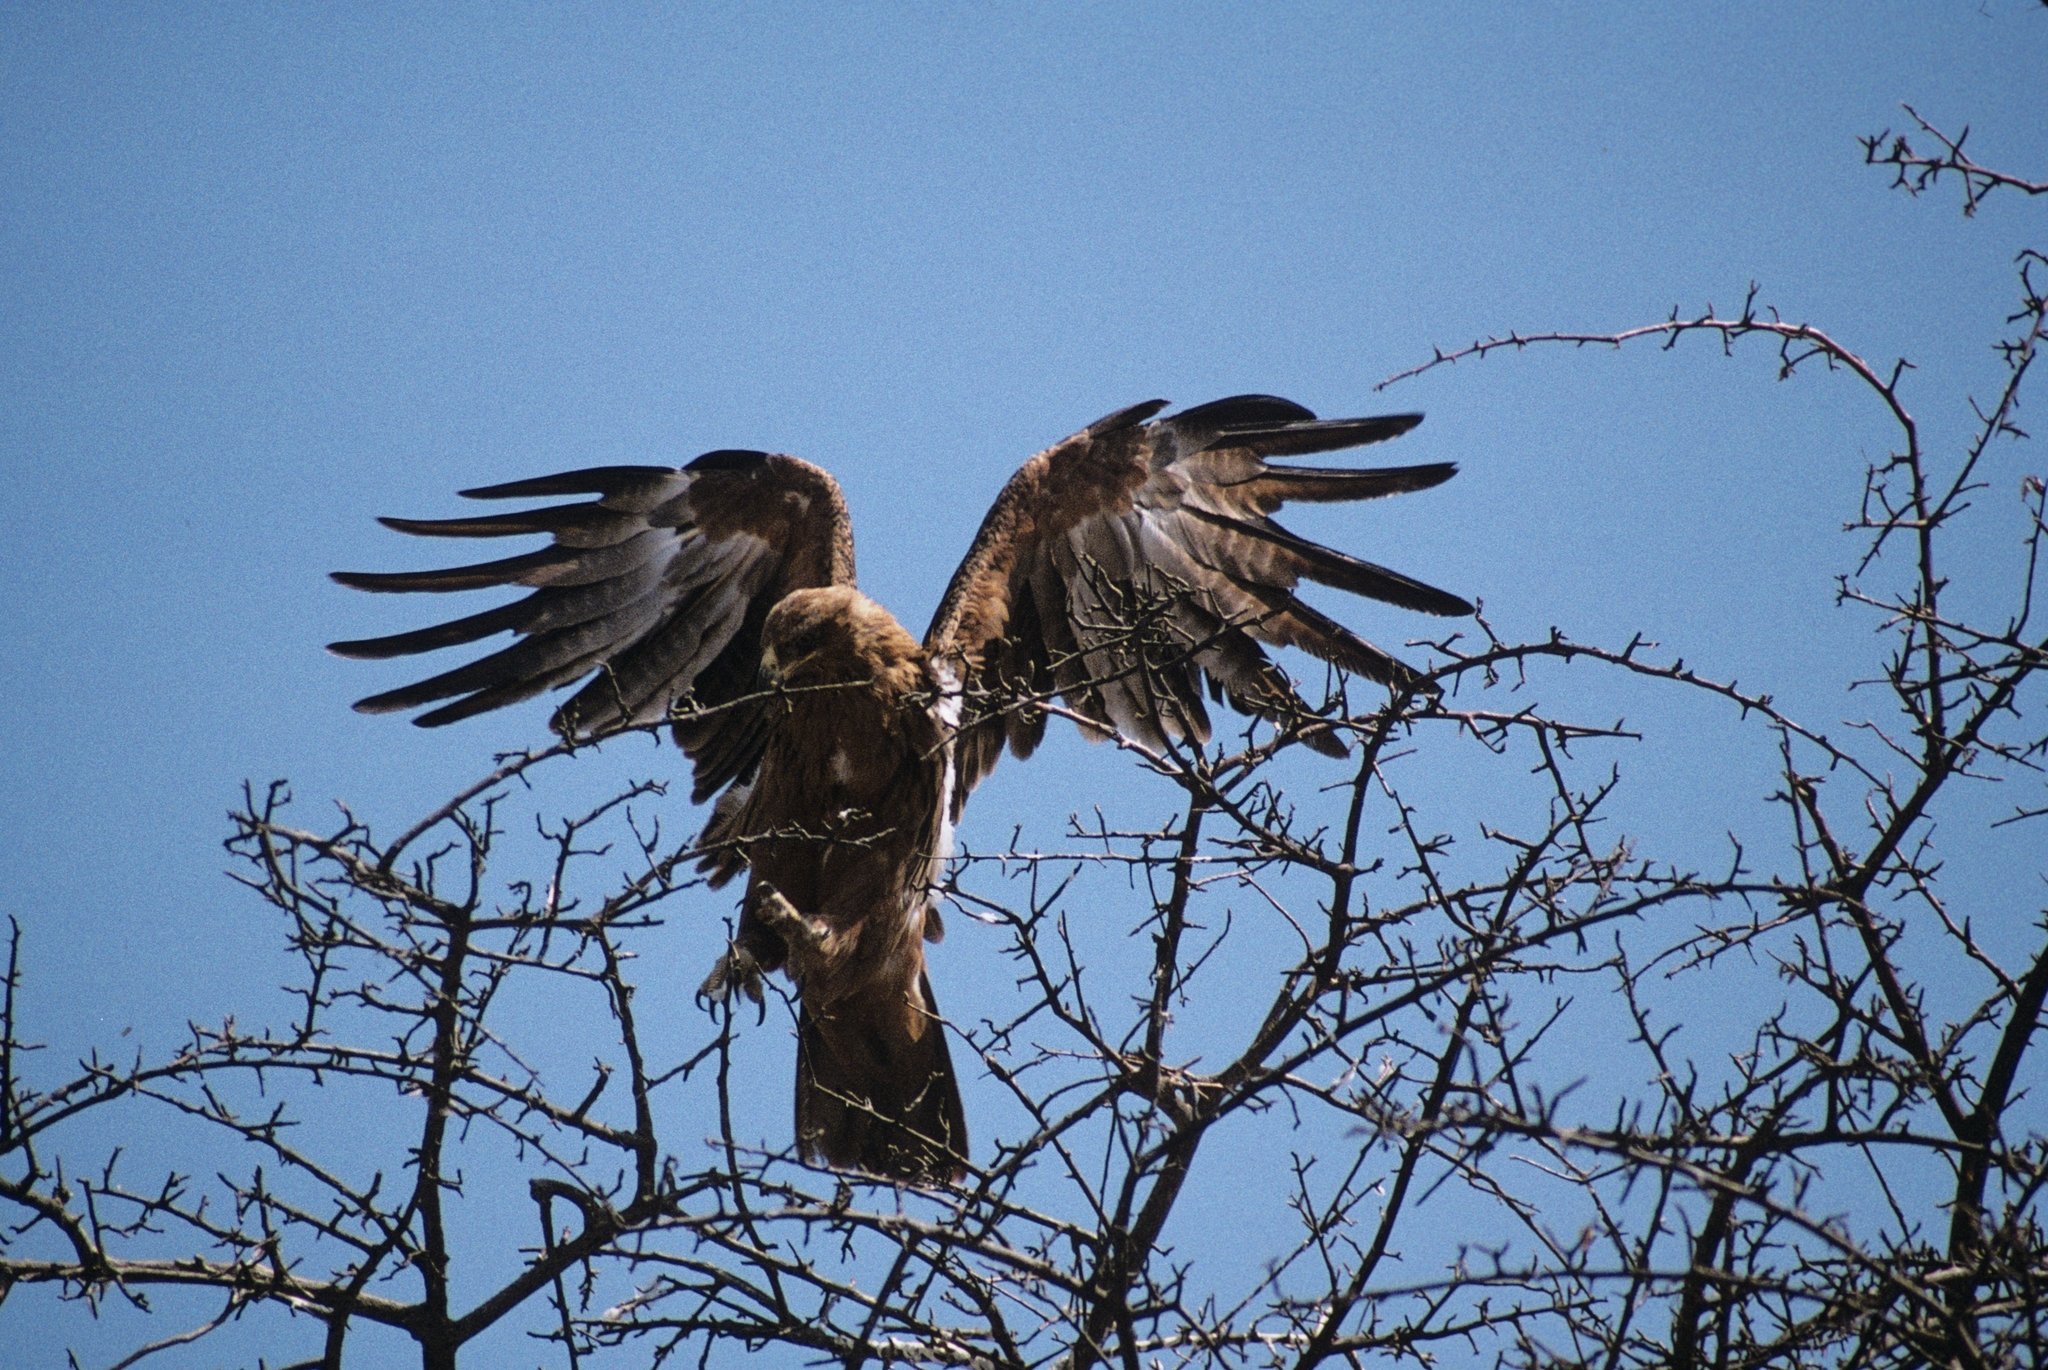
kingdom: Animalia
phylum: Chordata
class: Aves
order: Accipitriformes
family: Accipitridae
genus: Aquila
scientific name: Aquila rapax
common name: Tawny eagle
